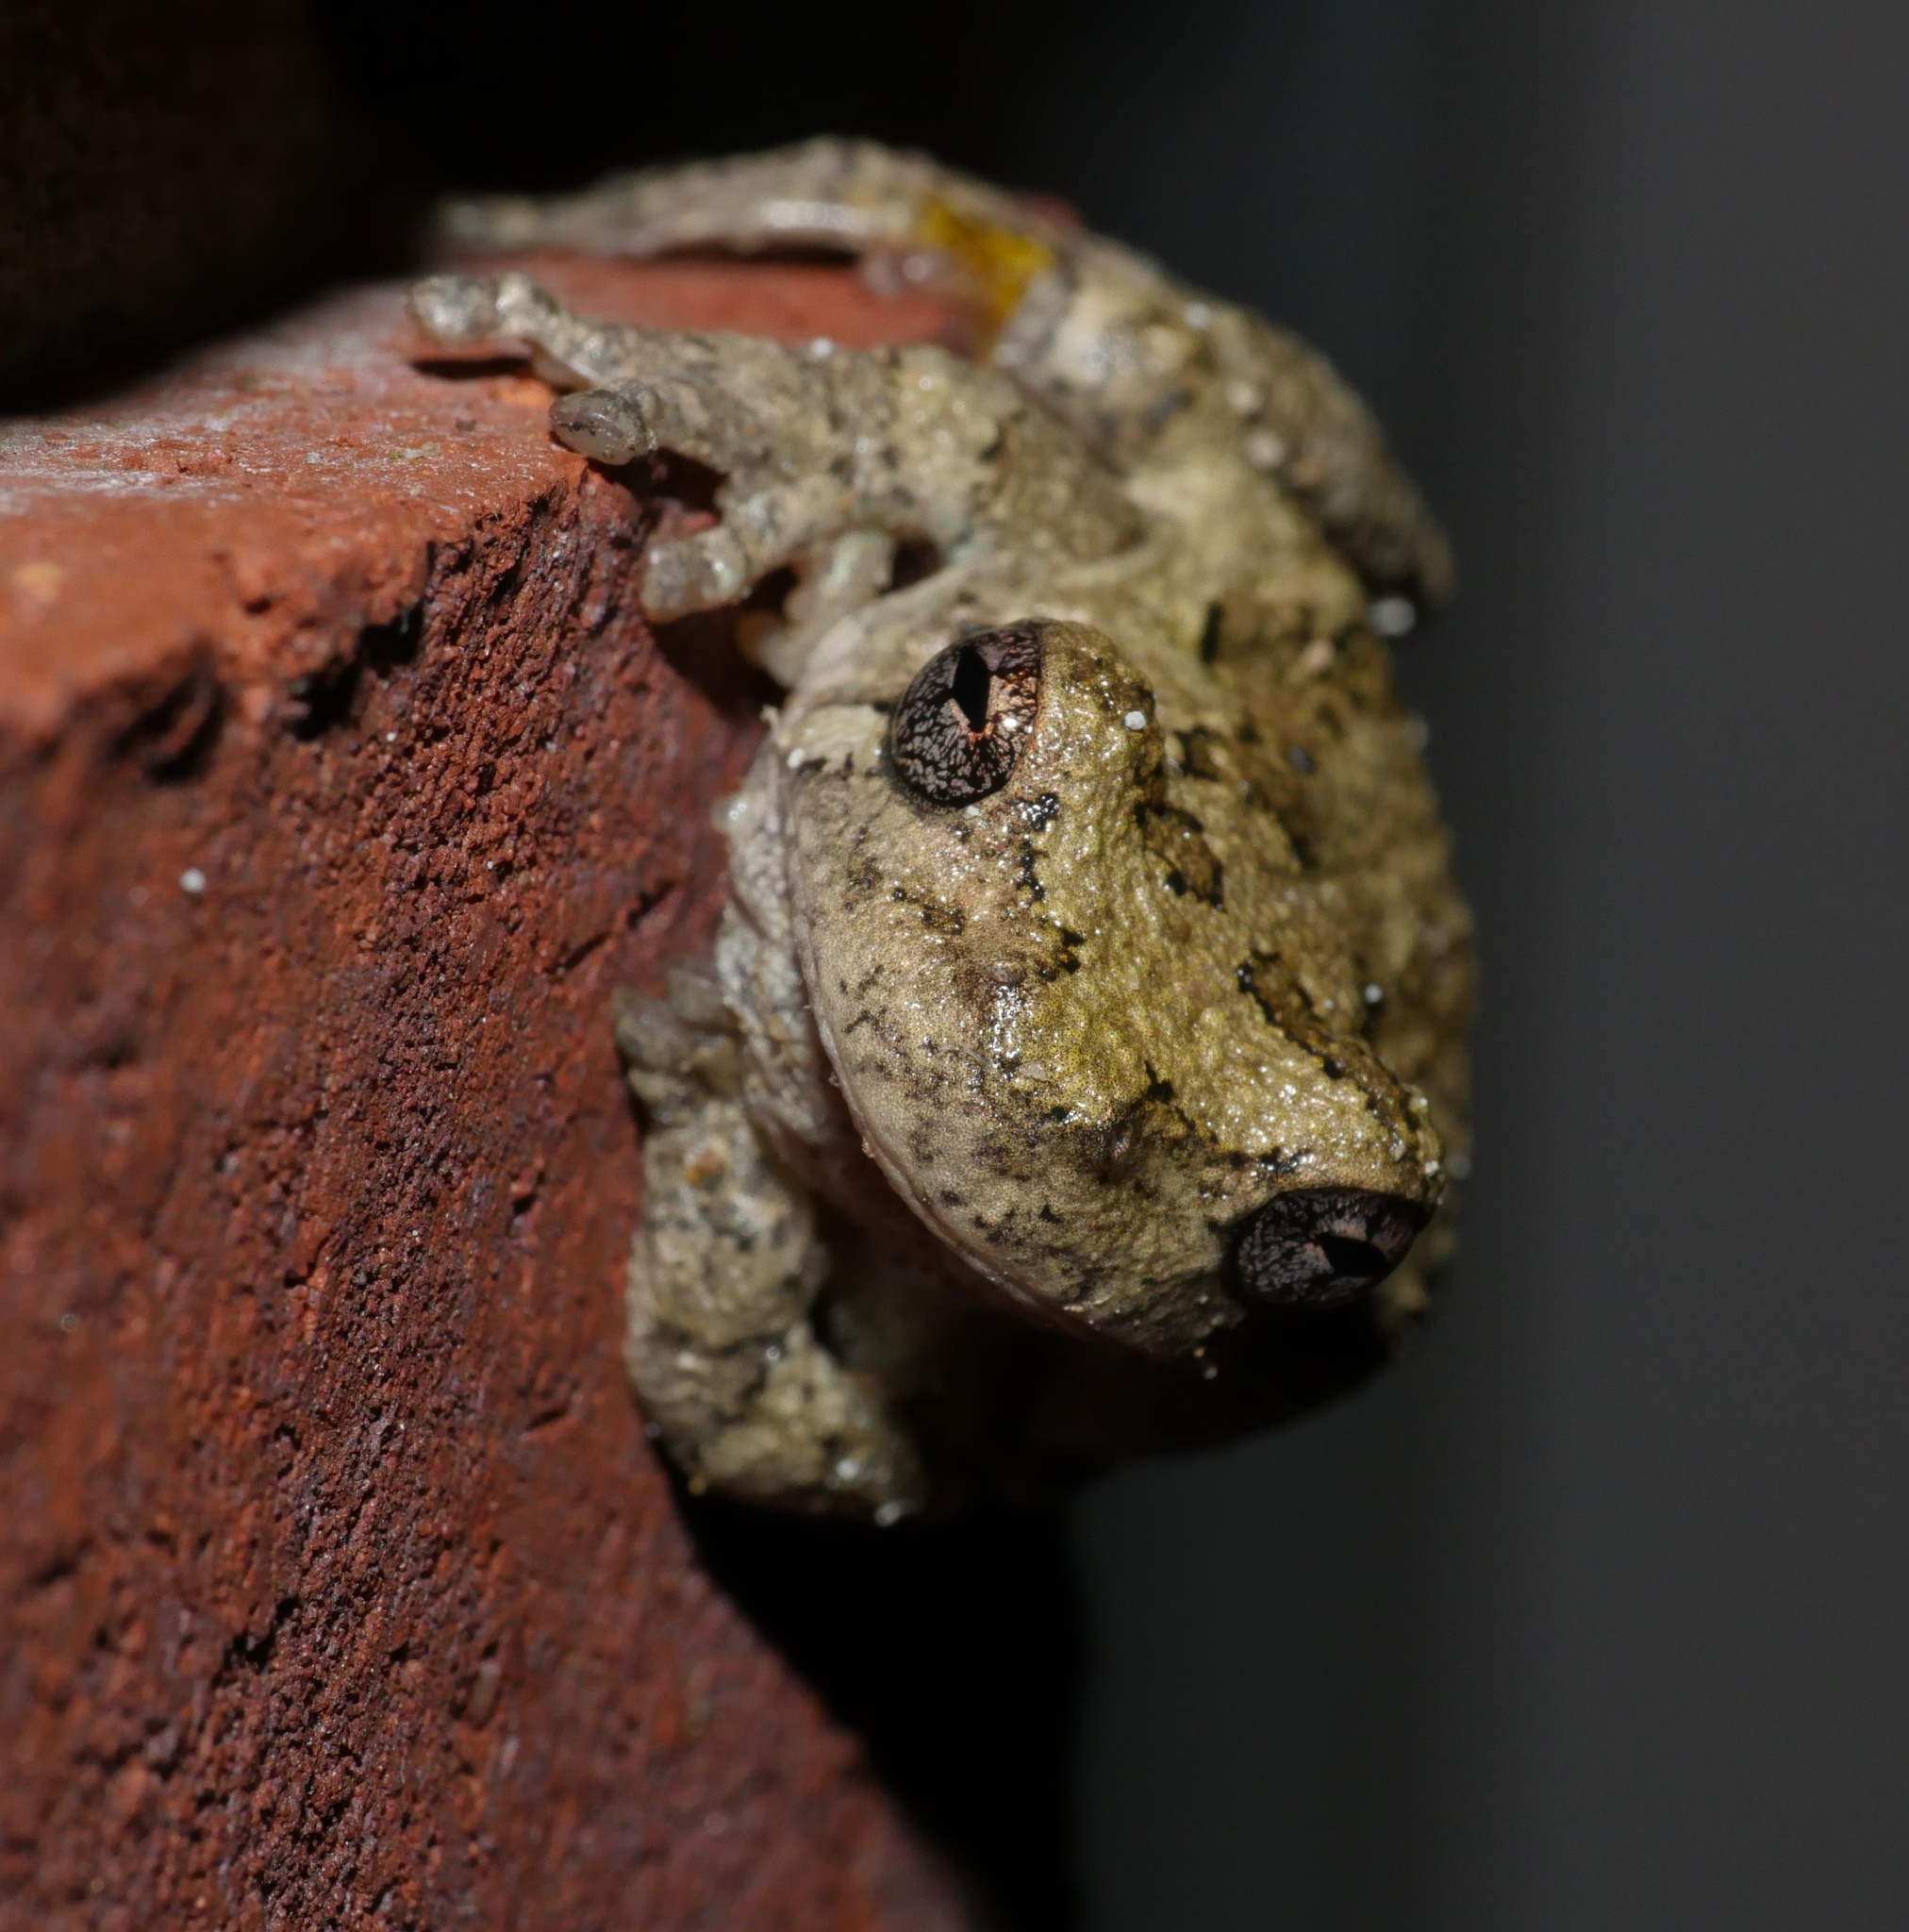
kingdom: Animalia
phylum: Chordata
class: Amphibia
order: Anura
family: Hylidae
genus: Hyla
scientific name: Hyla
